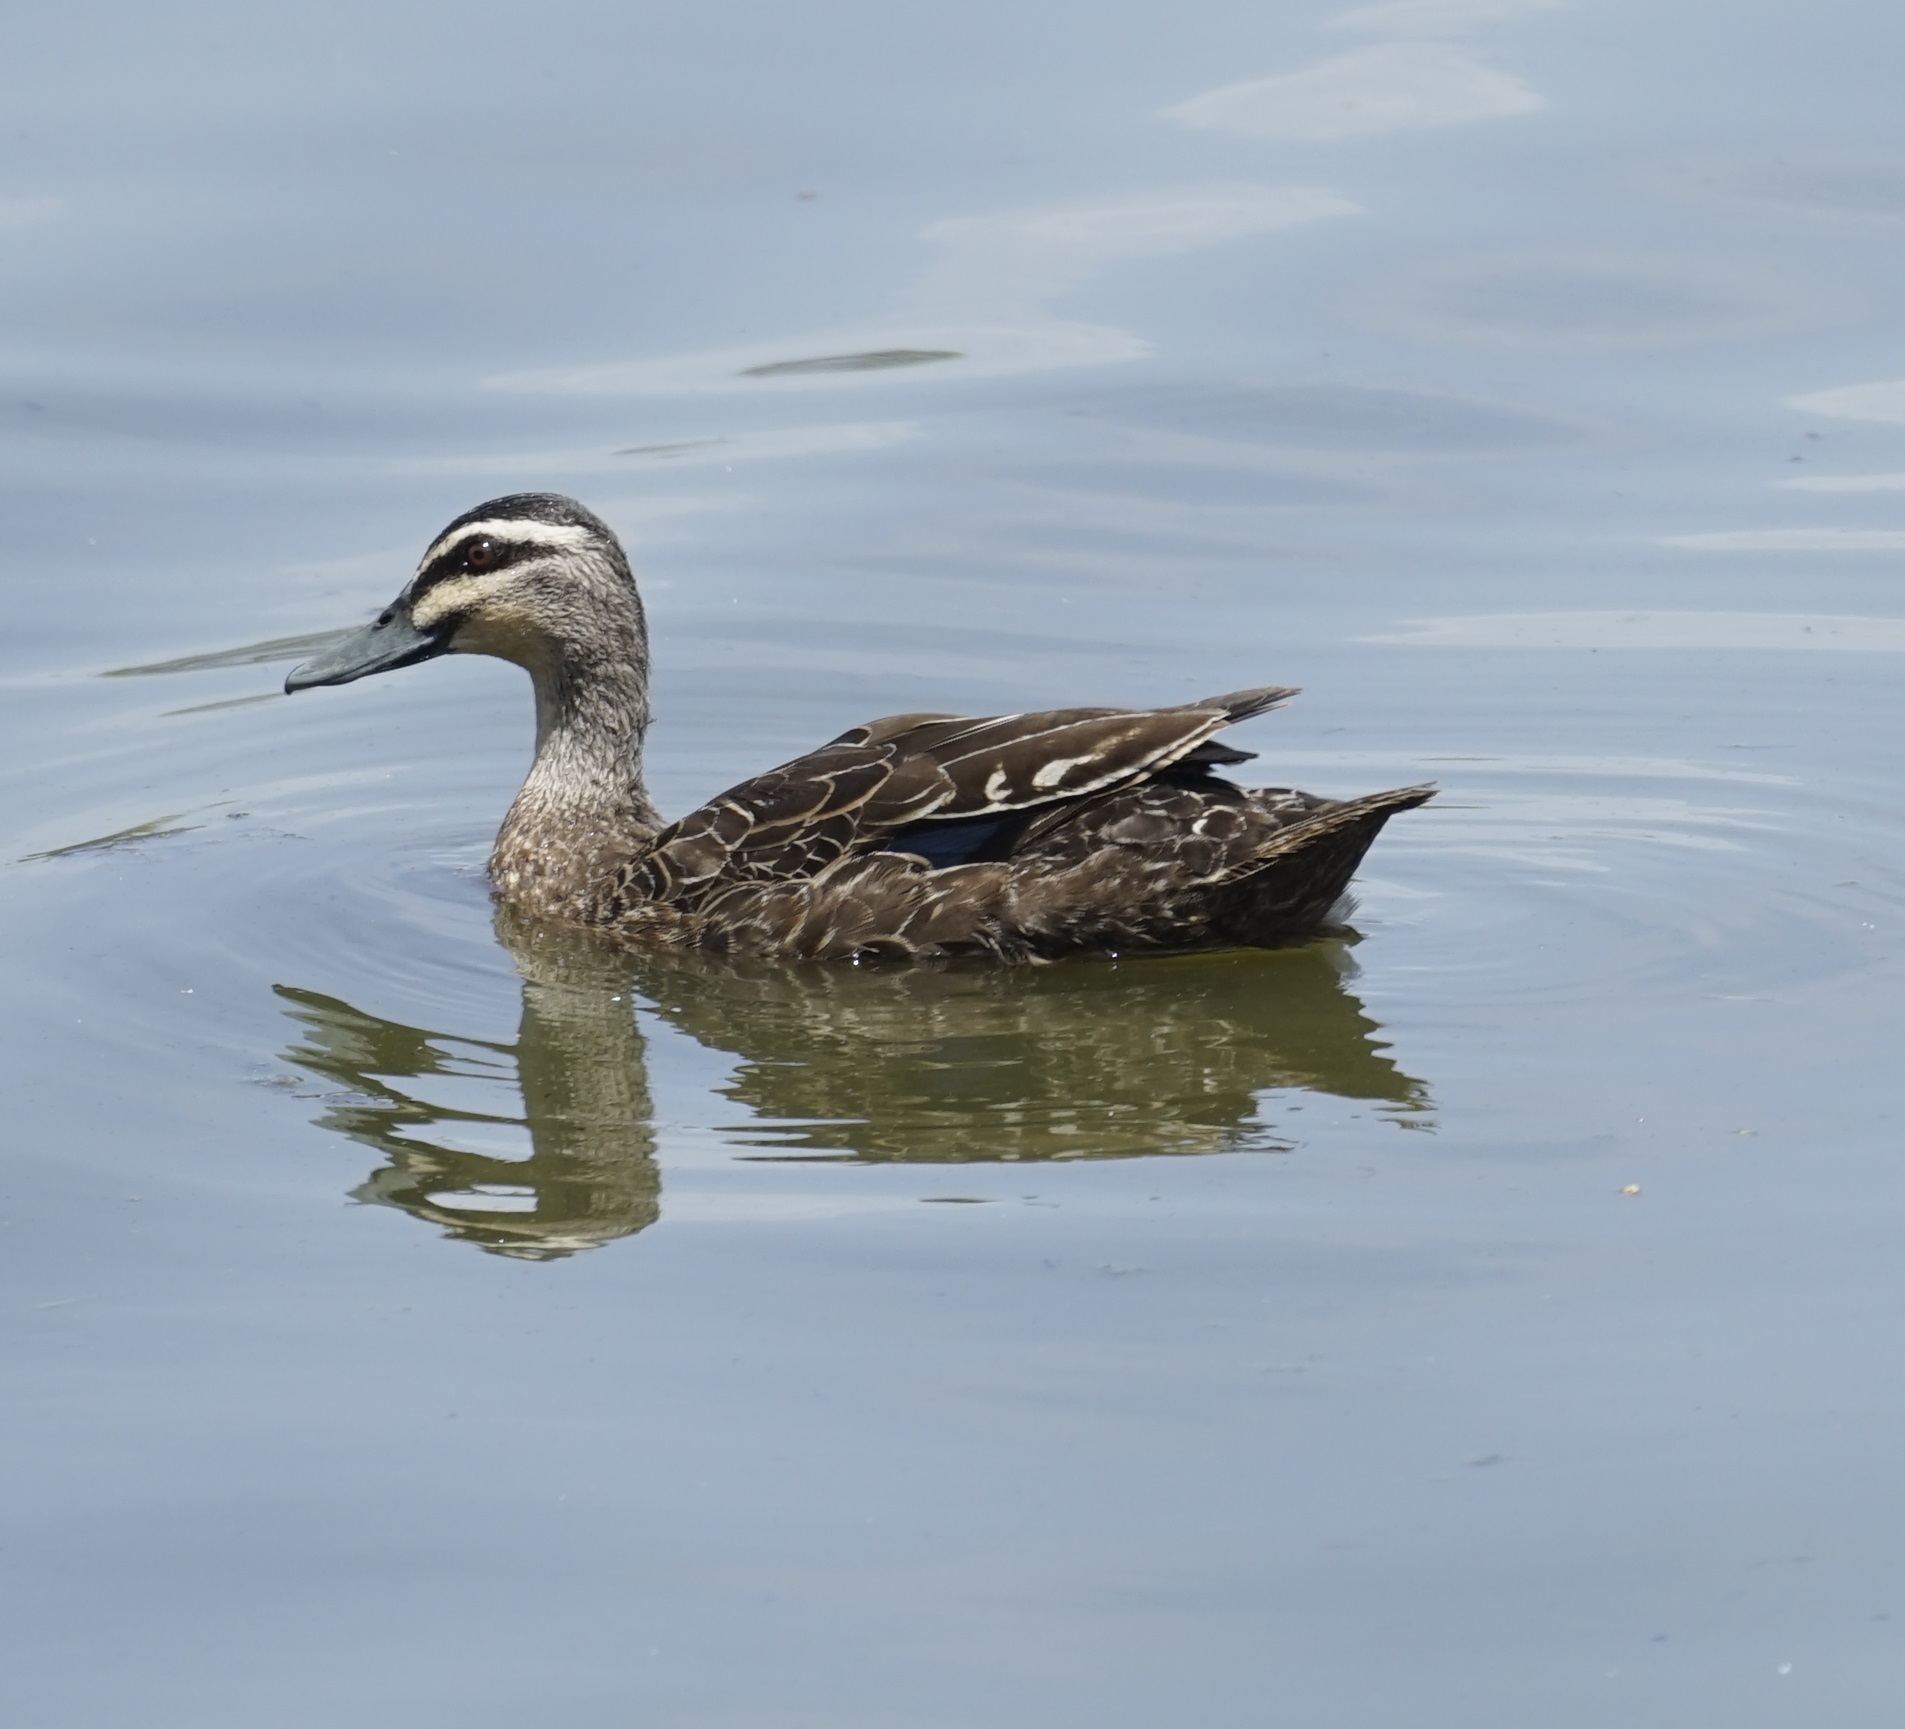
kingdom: Animalia
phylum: Chordata
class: Aves
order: Anseriformes
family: Anatidae
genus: Anas
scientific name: Anas superciliosa
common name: Pacific black duck
